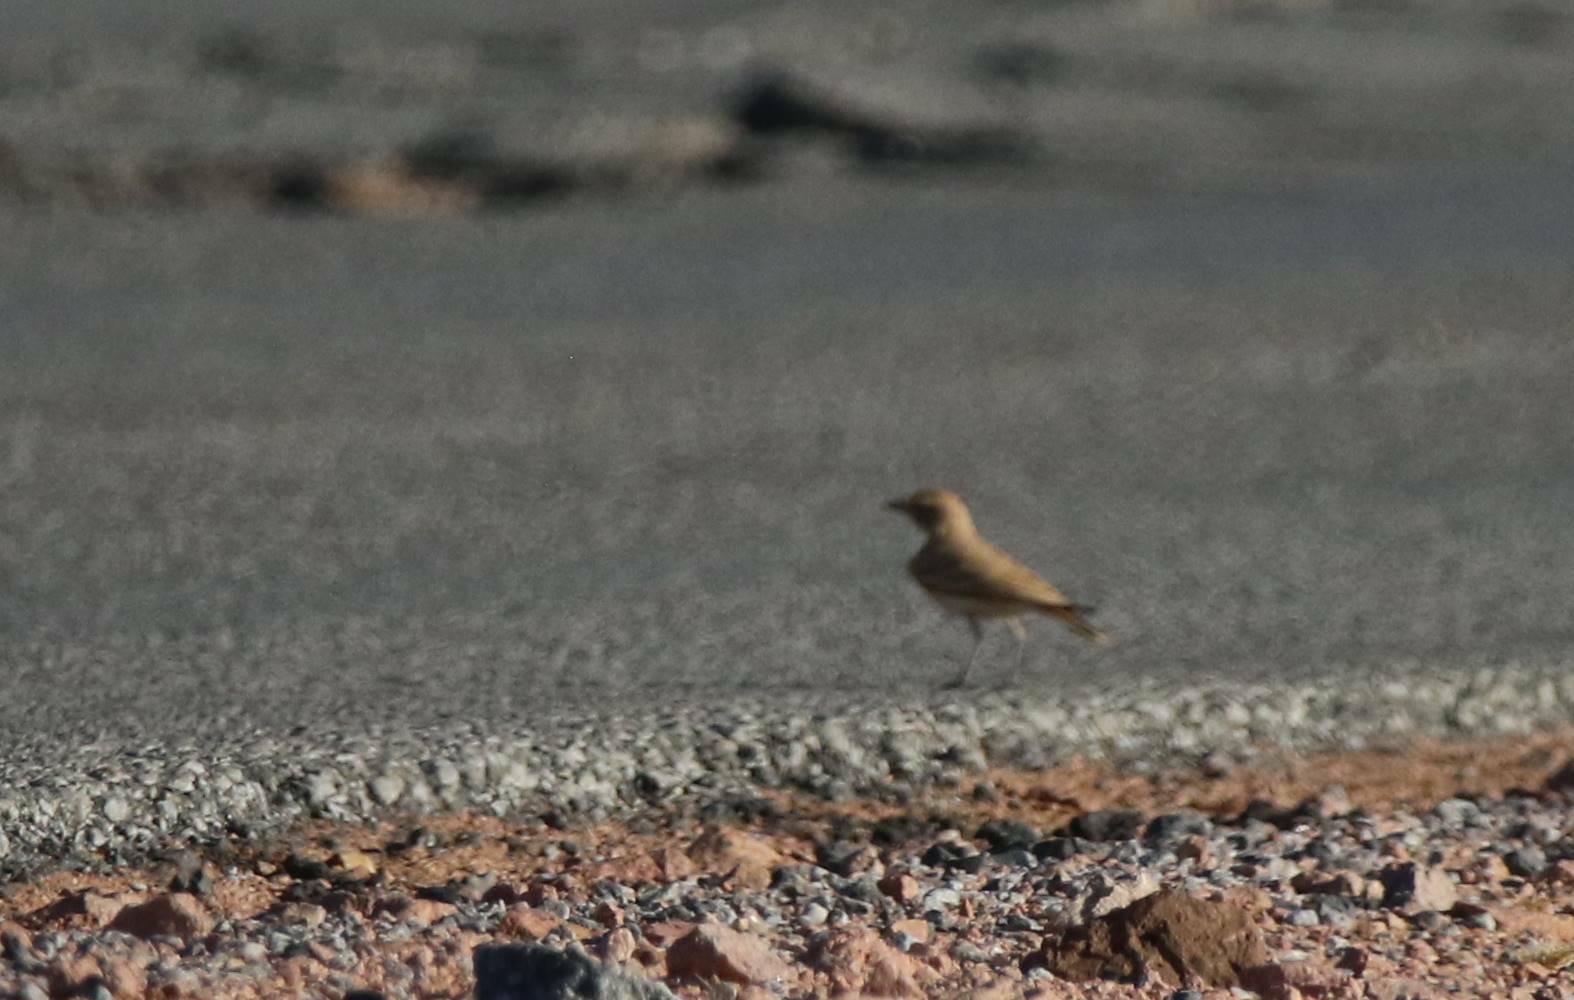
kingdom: Animalia
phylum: Chordata
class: Aves
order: Passeriformes
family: Alaudidae
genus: Ammomanes
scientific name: Ammomanes deserti
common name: Desert lark
